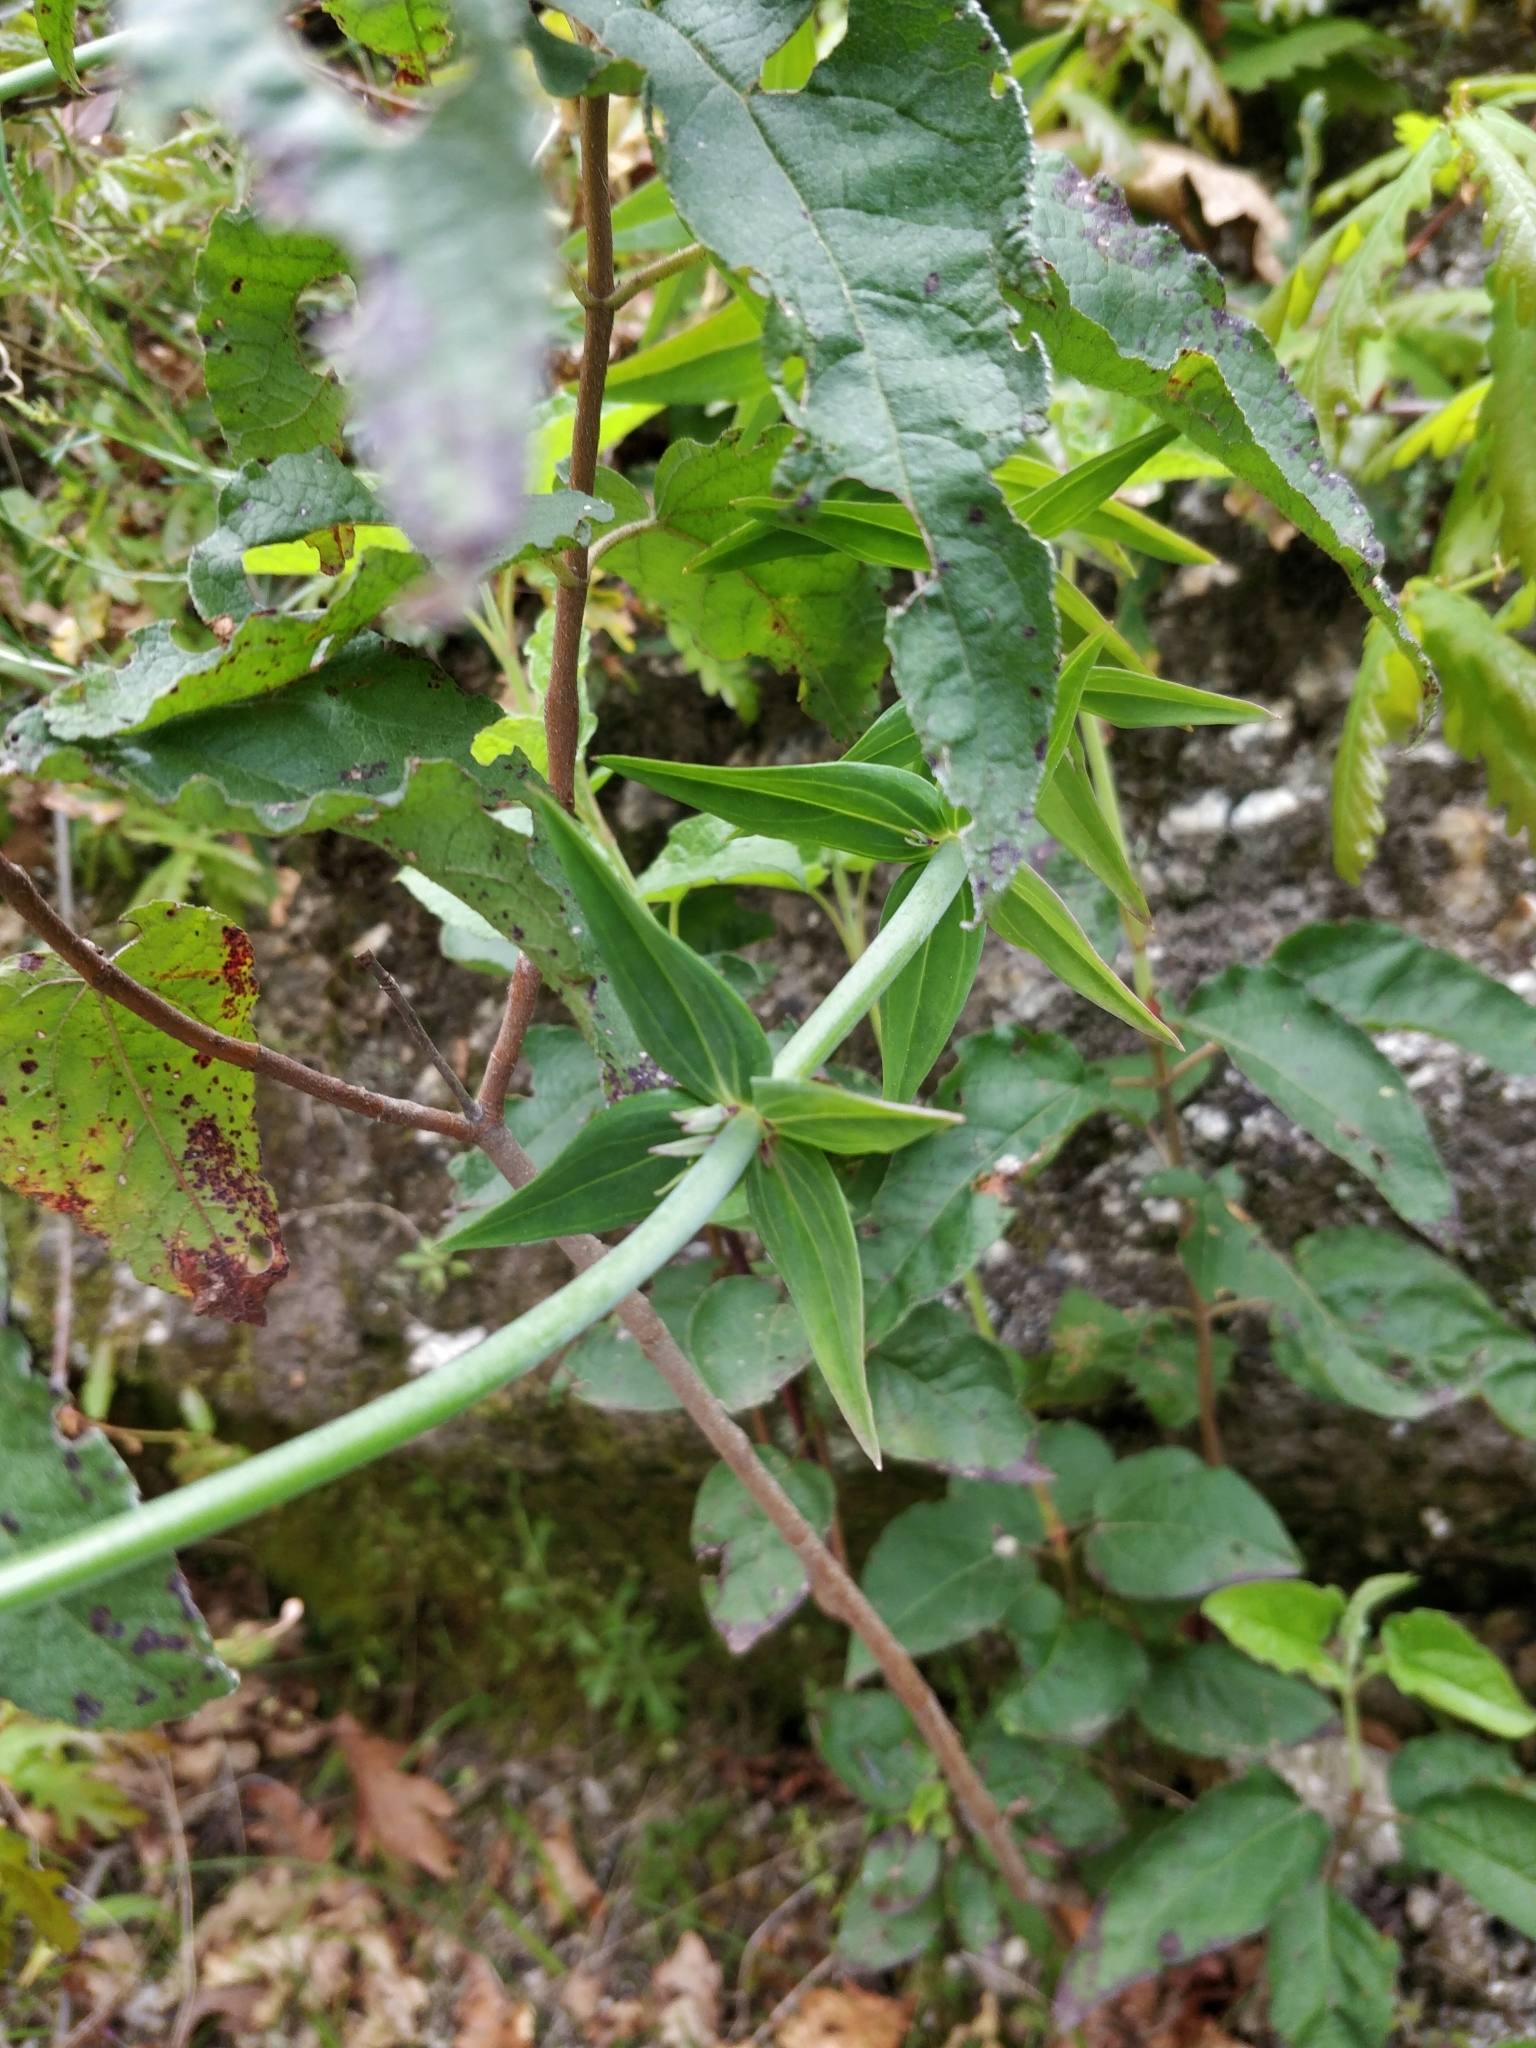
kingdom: Plantae
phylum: Tracheophyta
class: Magnoliopsida
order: Lamiales
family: Plantaginaceae
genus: Linaria
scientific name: Linaria triornithophora
